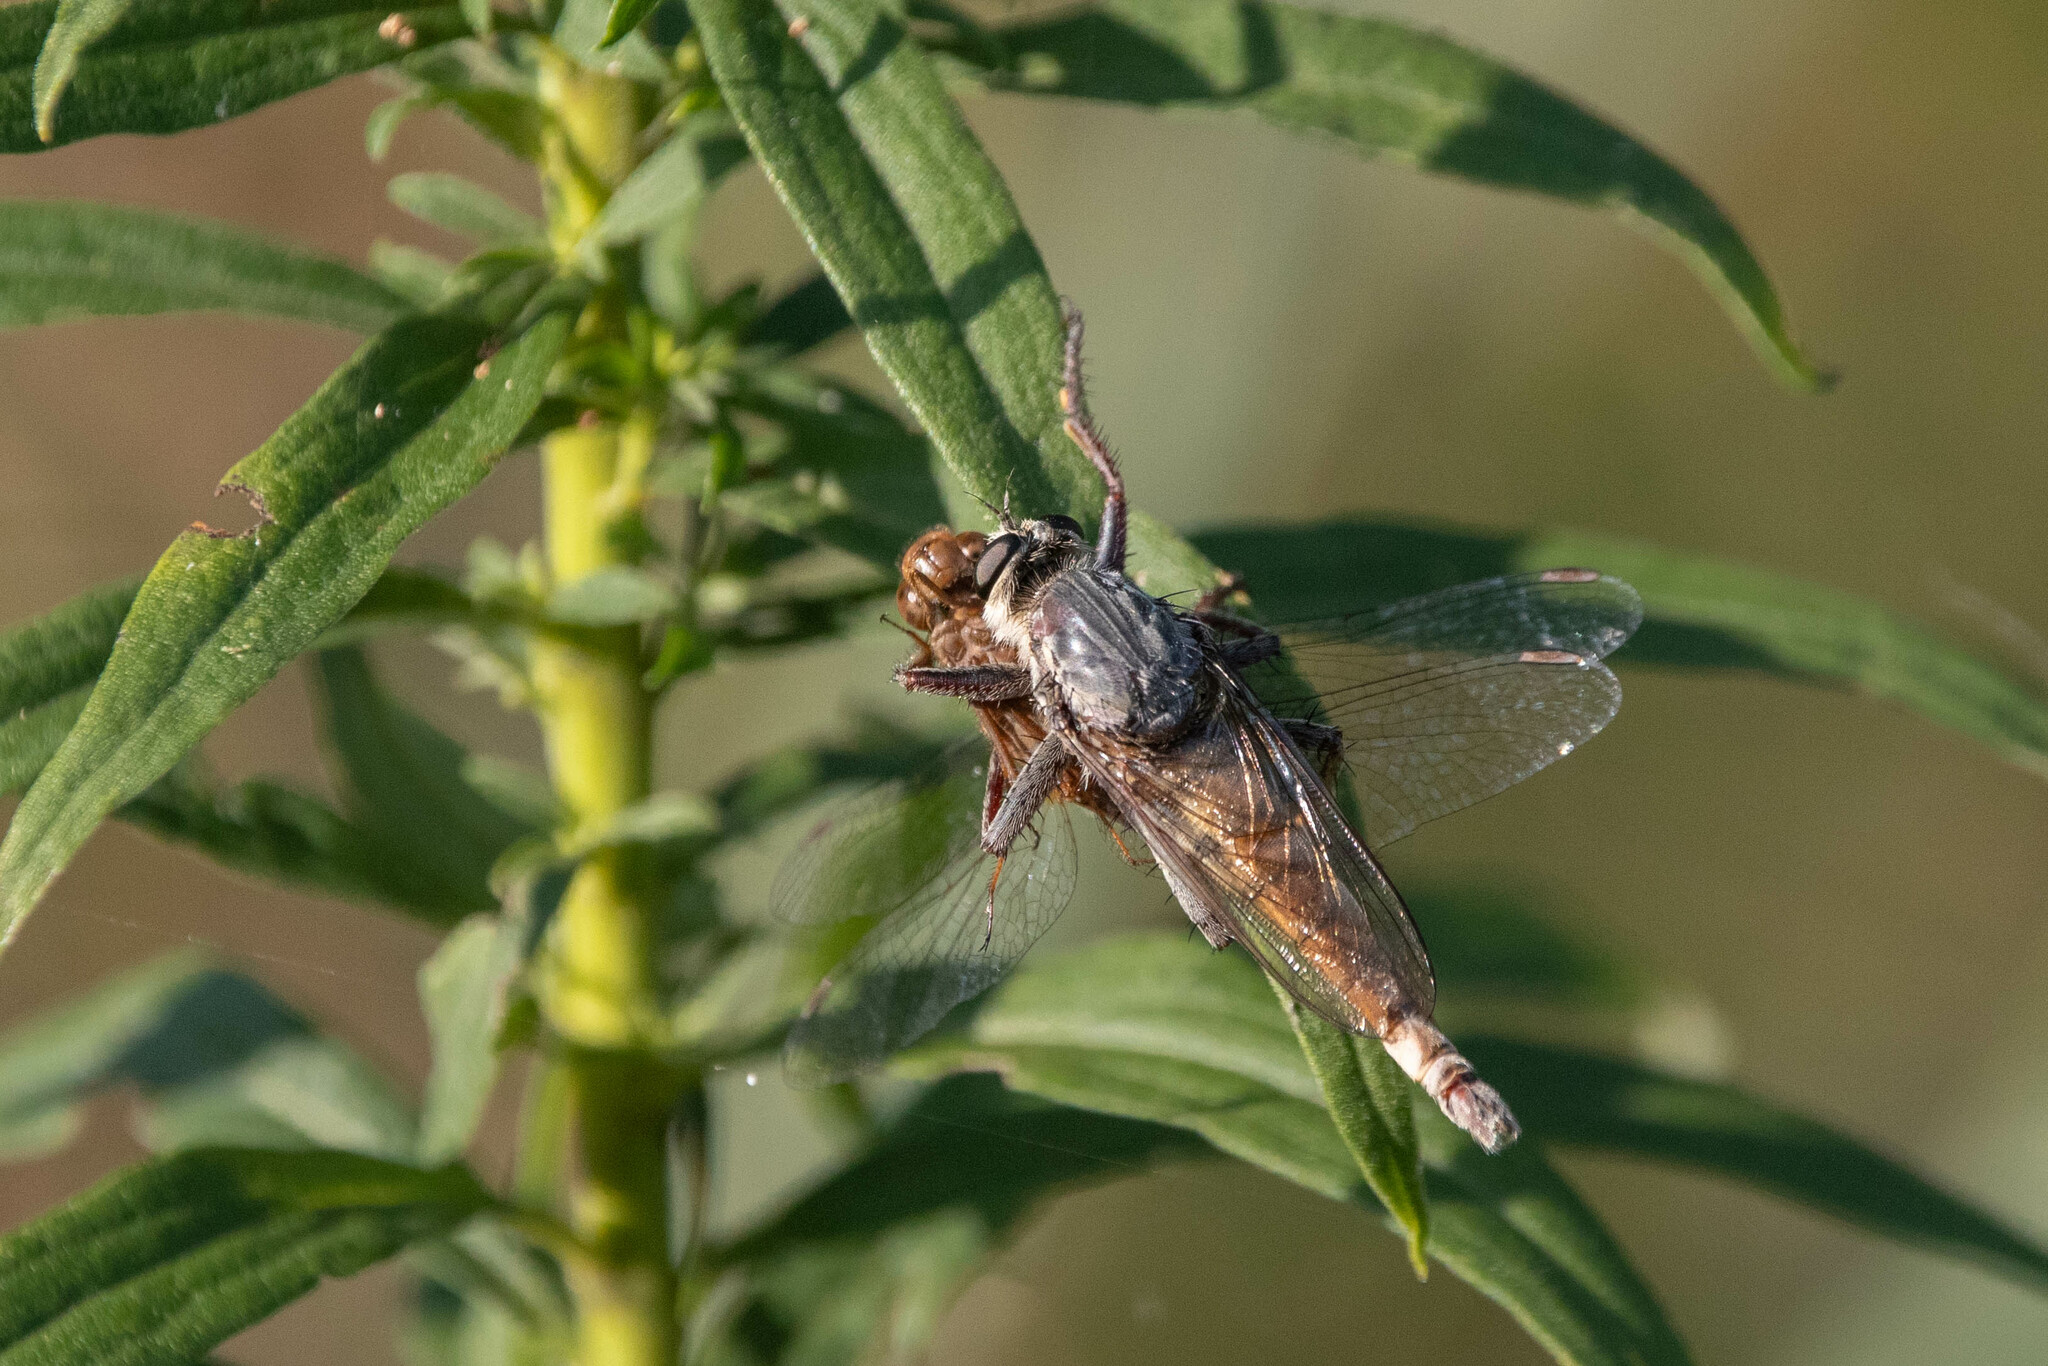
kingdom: Animalia
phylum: Arthropoda
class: Insecta
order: Diptera
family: Asilidae
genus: Proctacanthus
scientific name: Proctacanthus milbertii
